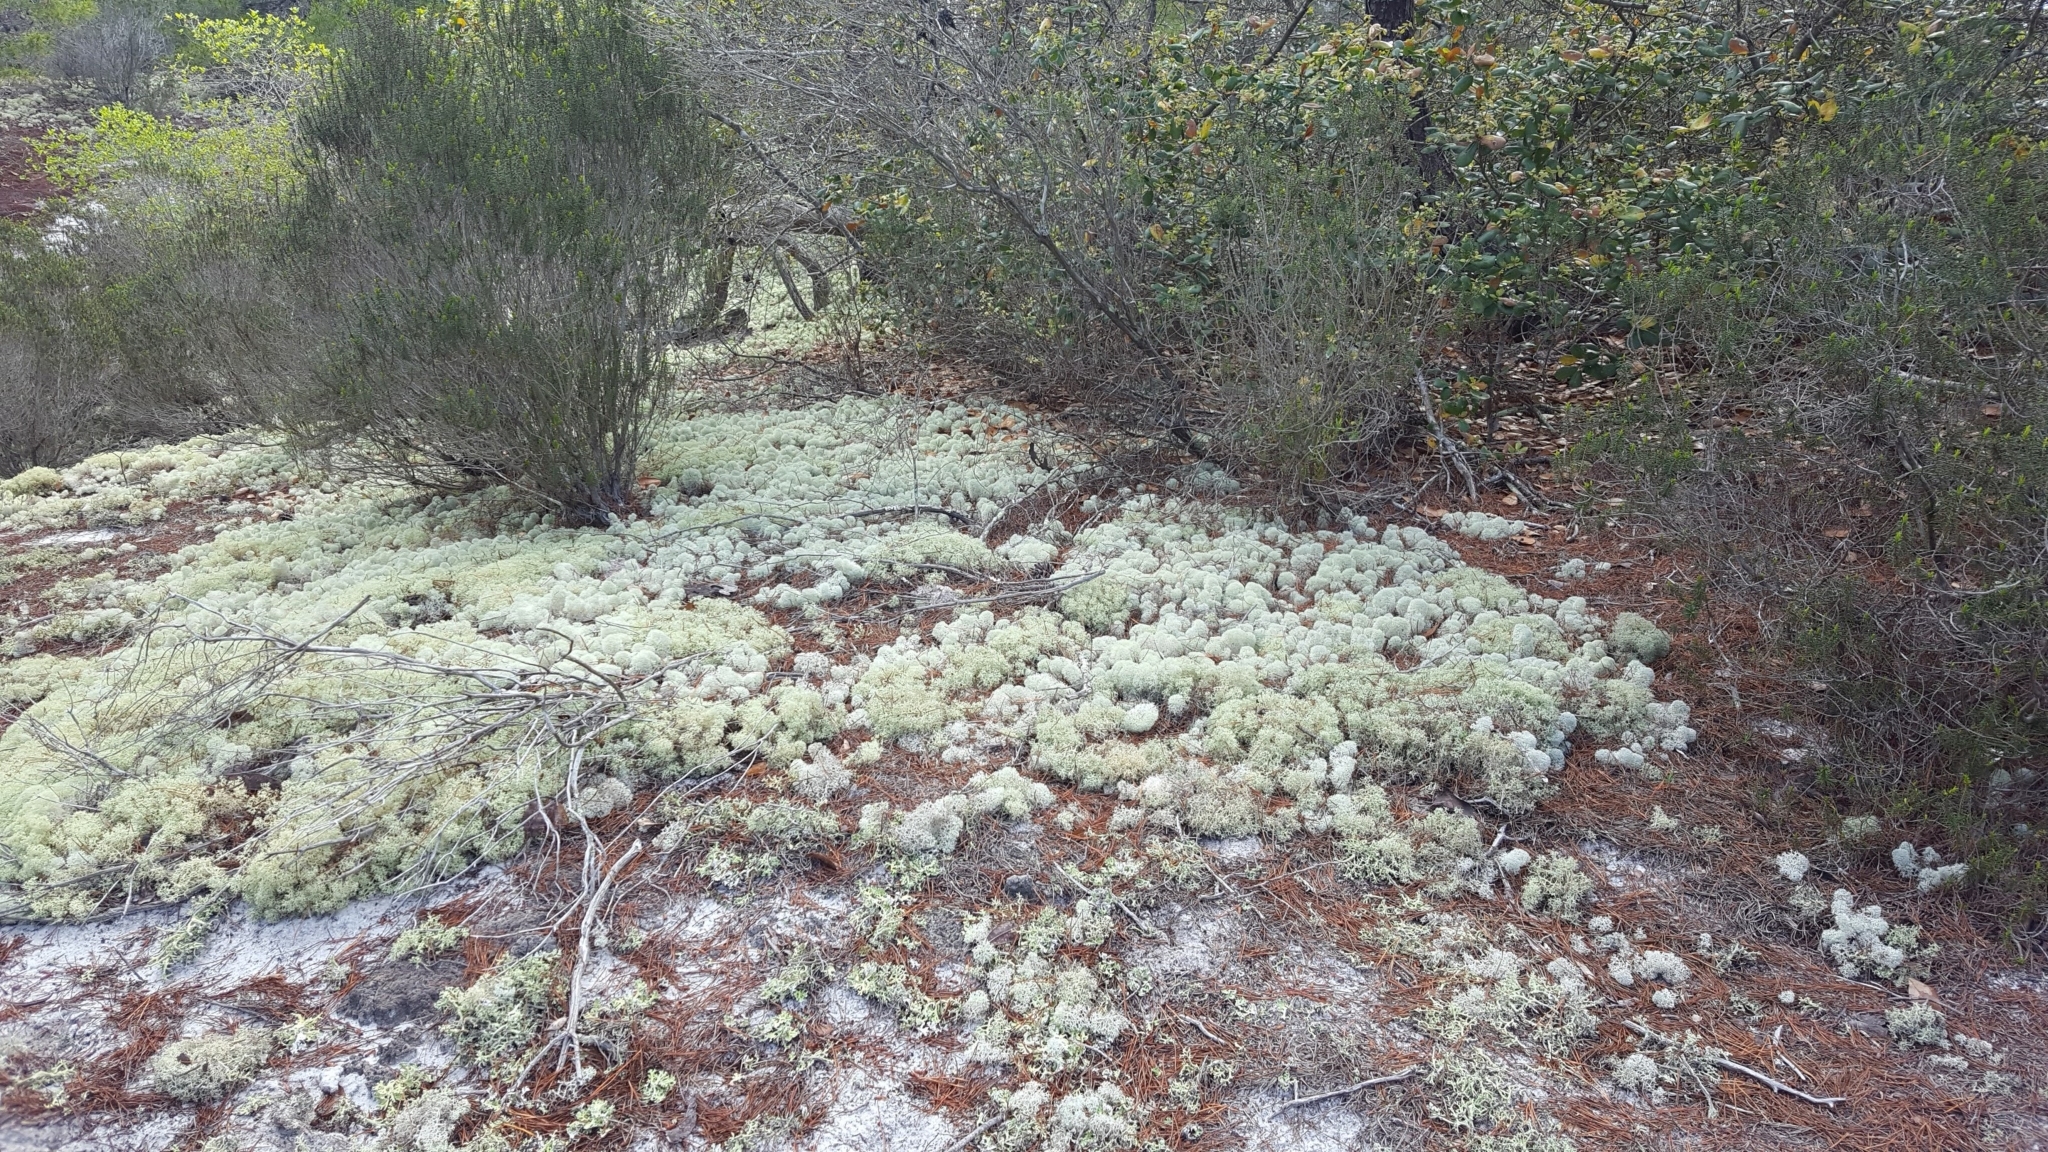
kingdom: Fungi
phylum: Ascomycota
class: Lecanoromycetes
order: Lecanorales
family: Cladoniaceae
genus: Cladonia
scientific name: Cladonia evansii
